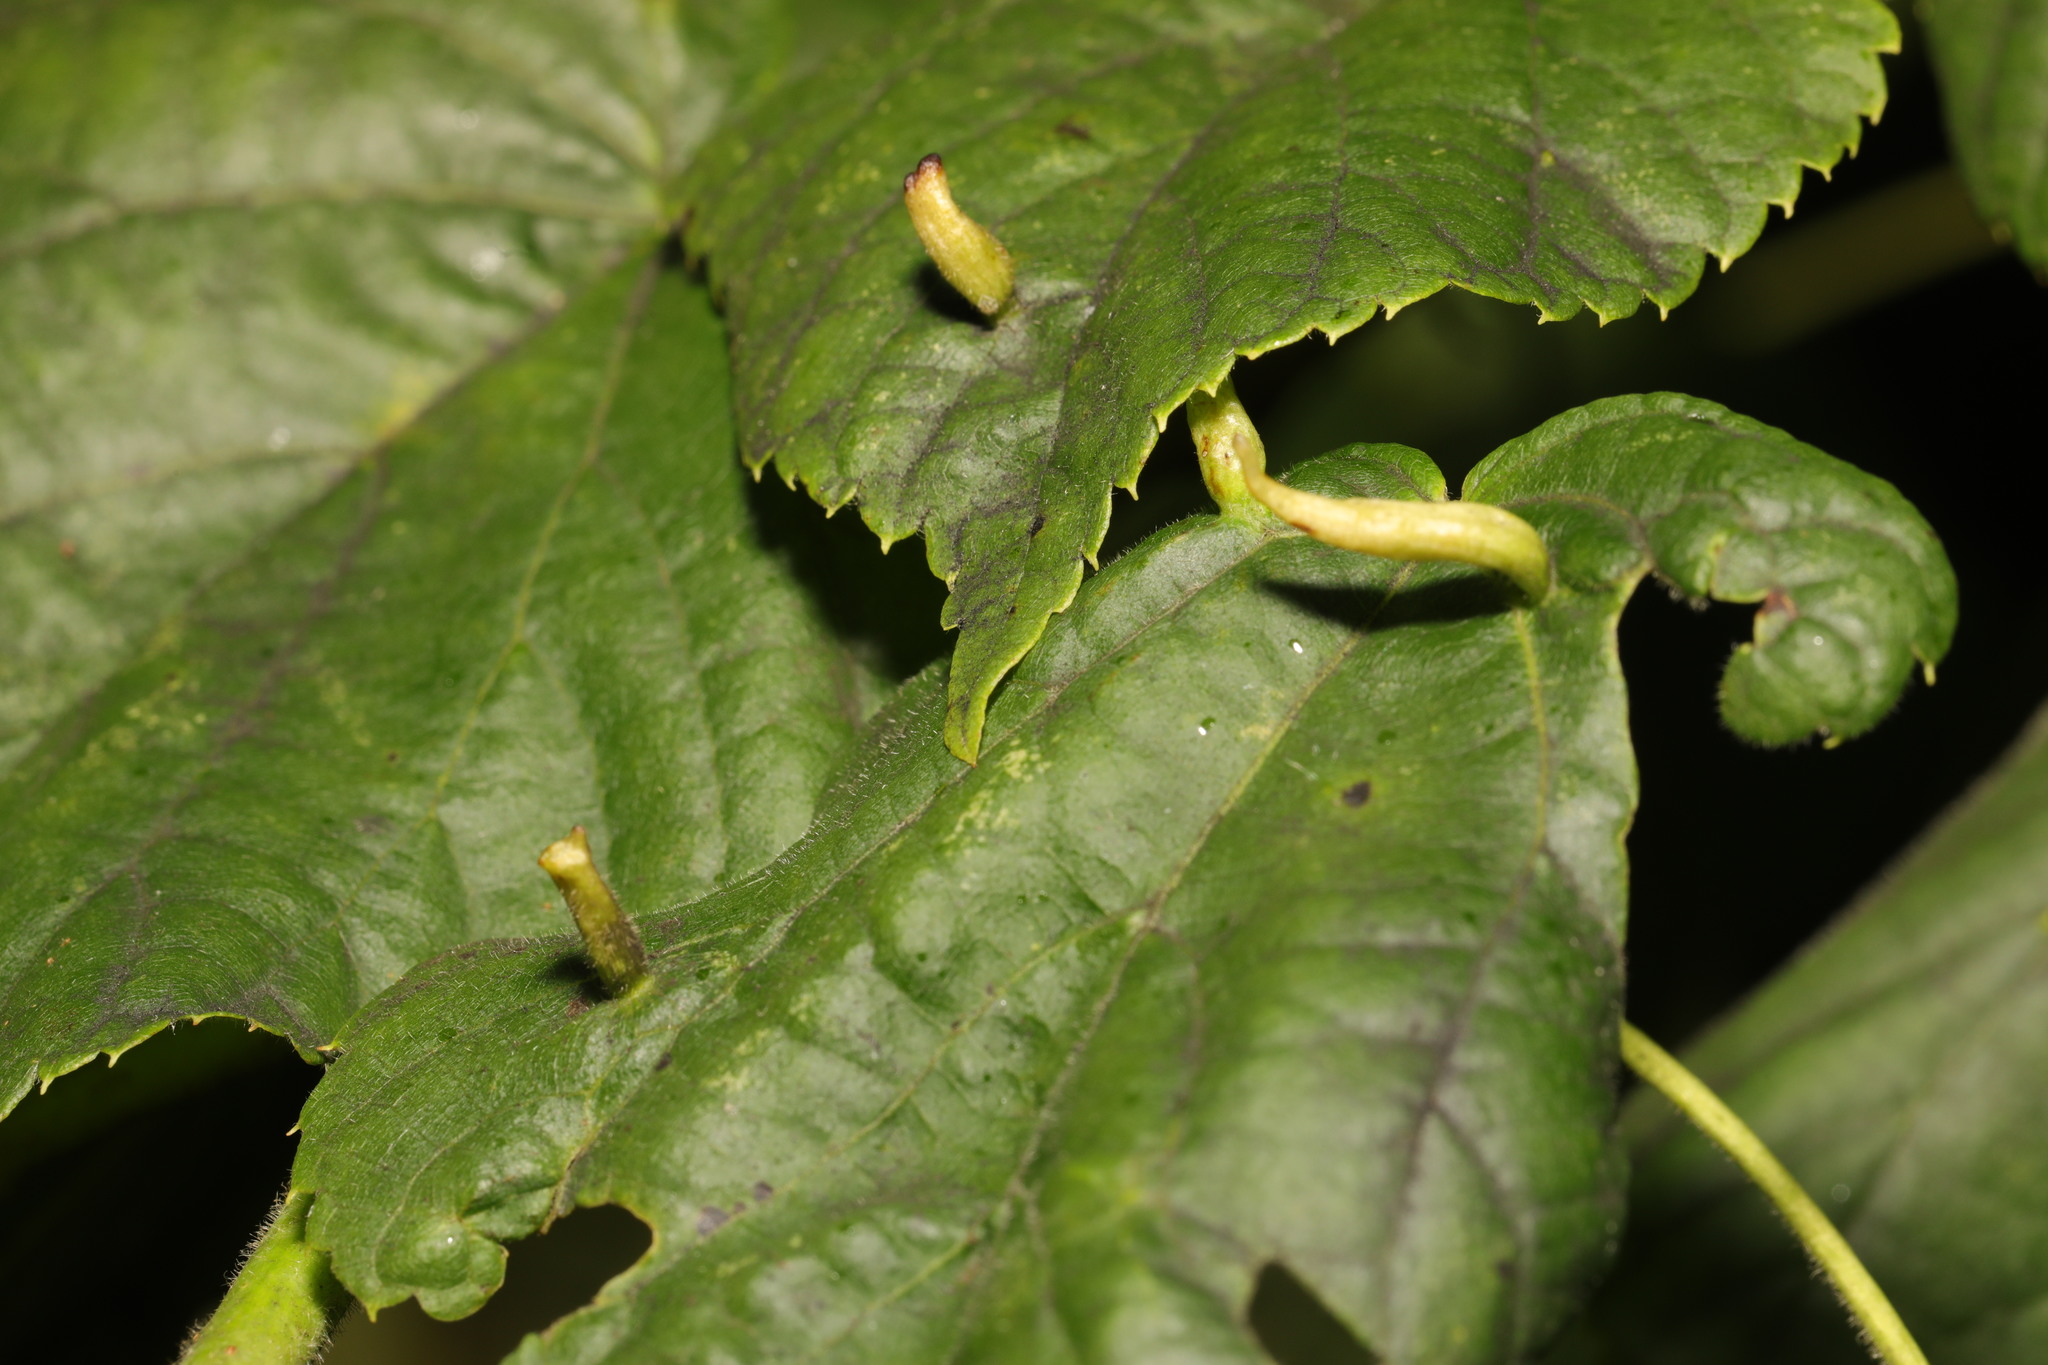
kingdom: Animalia
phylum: Arthropoda
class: Arachnida
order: Trombidiformes
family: Eriophyidae
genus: Eriophyes
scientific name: Eriophyes tiliae
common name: Red nail gall mite
